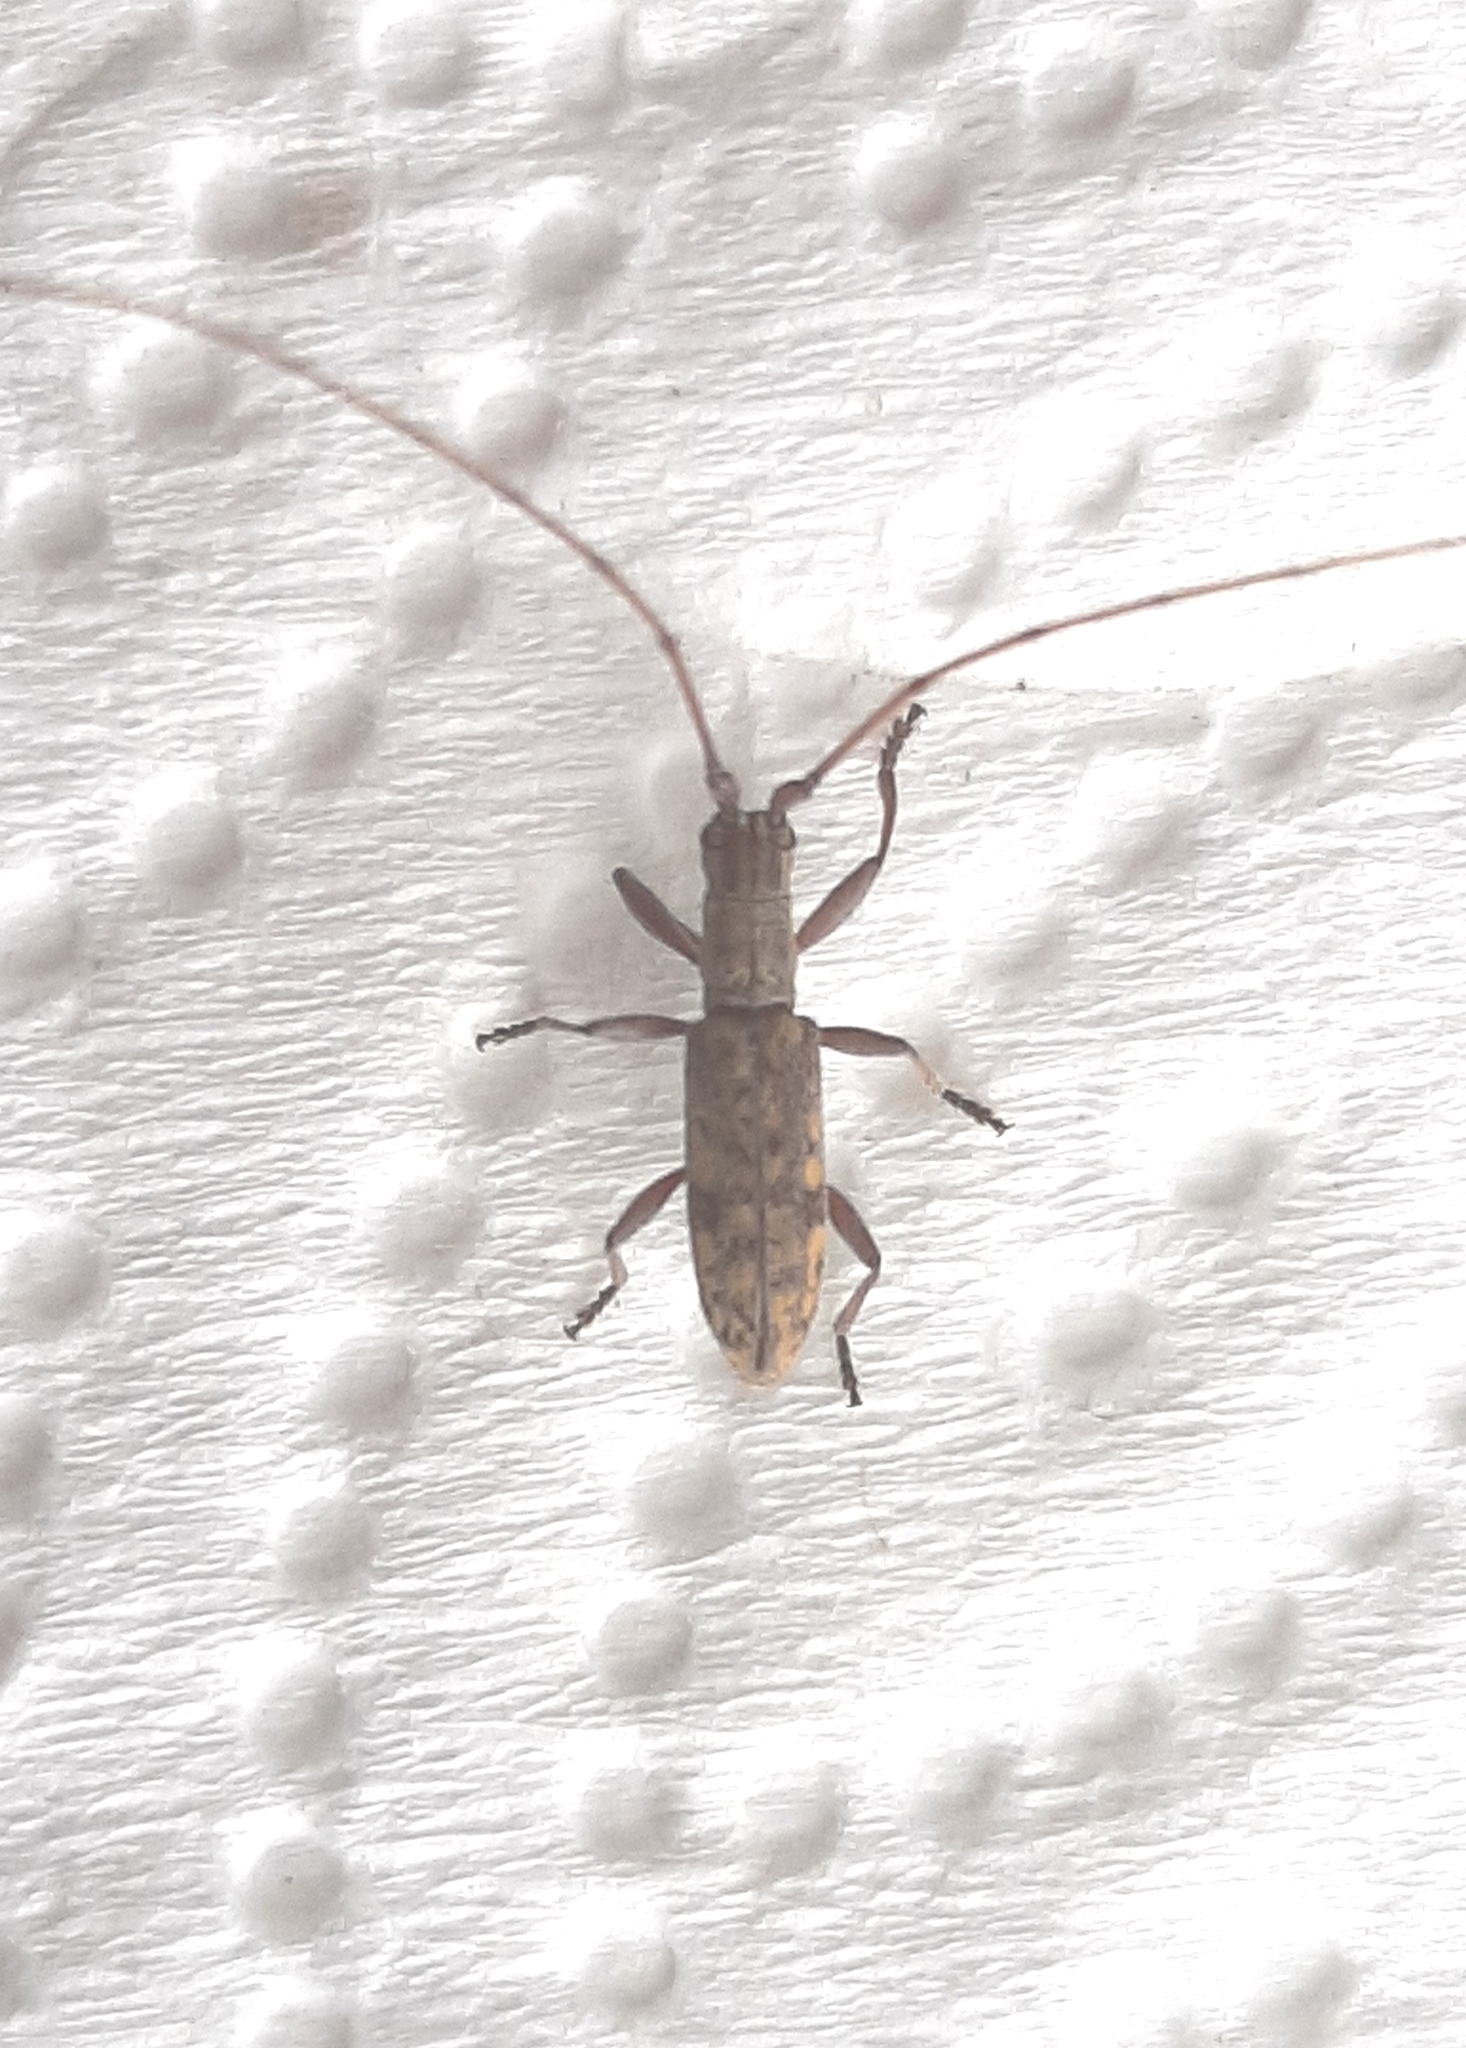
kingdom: Animalia
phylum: Arthropoda
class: Insecta
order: Coleoptera
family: Cerambycidae
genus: Dorcaschema
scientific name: Dorcaschema alternatum
